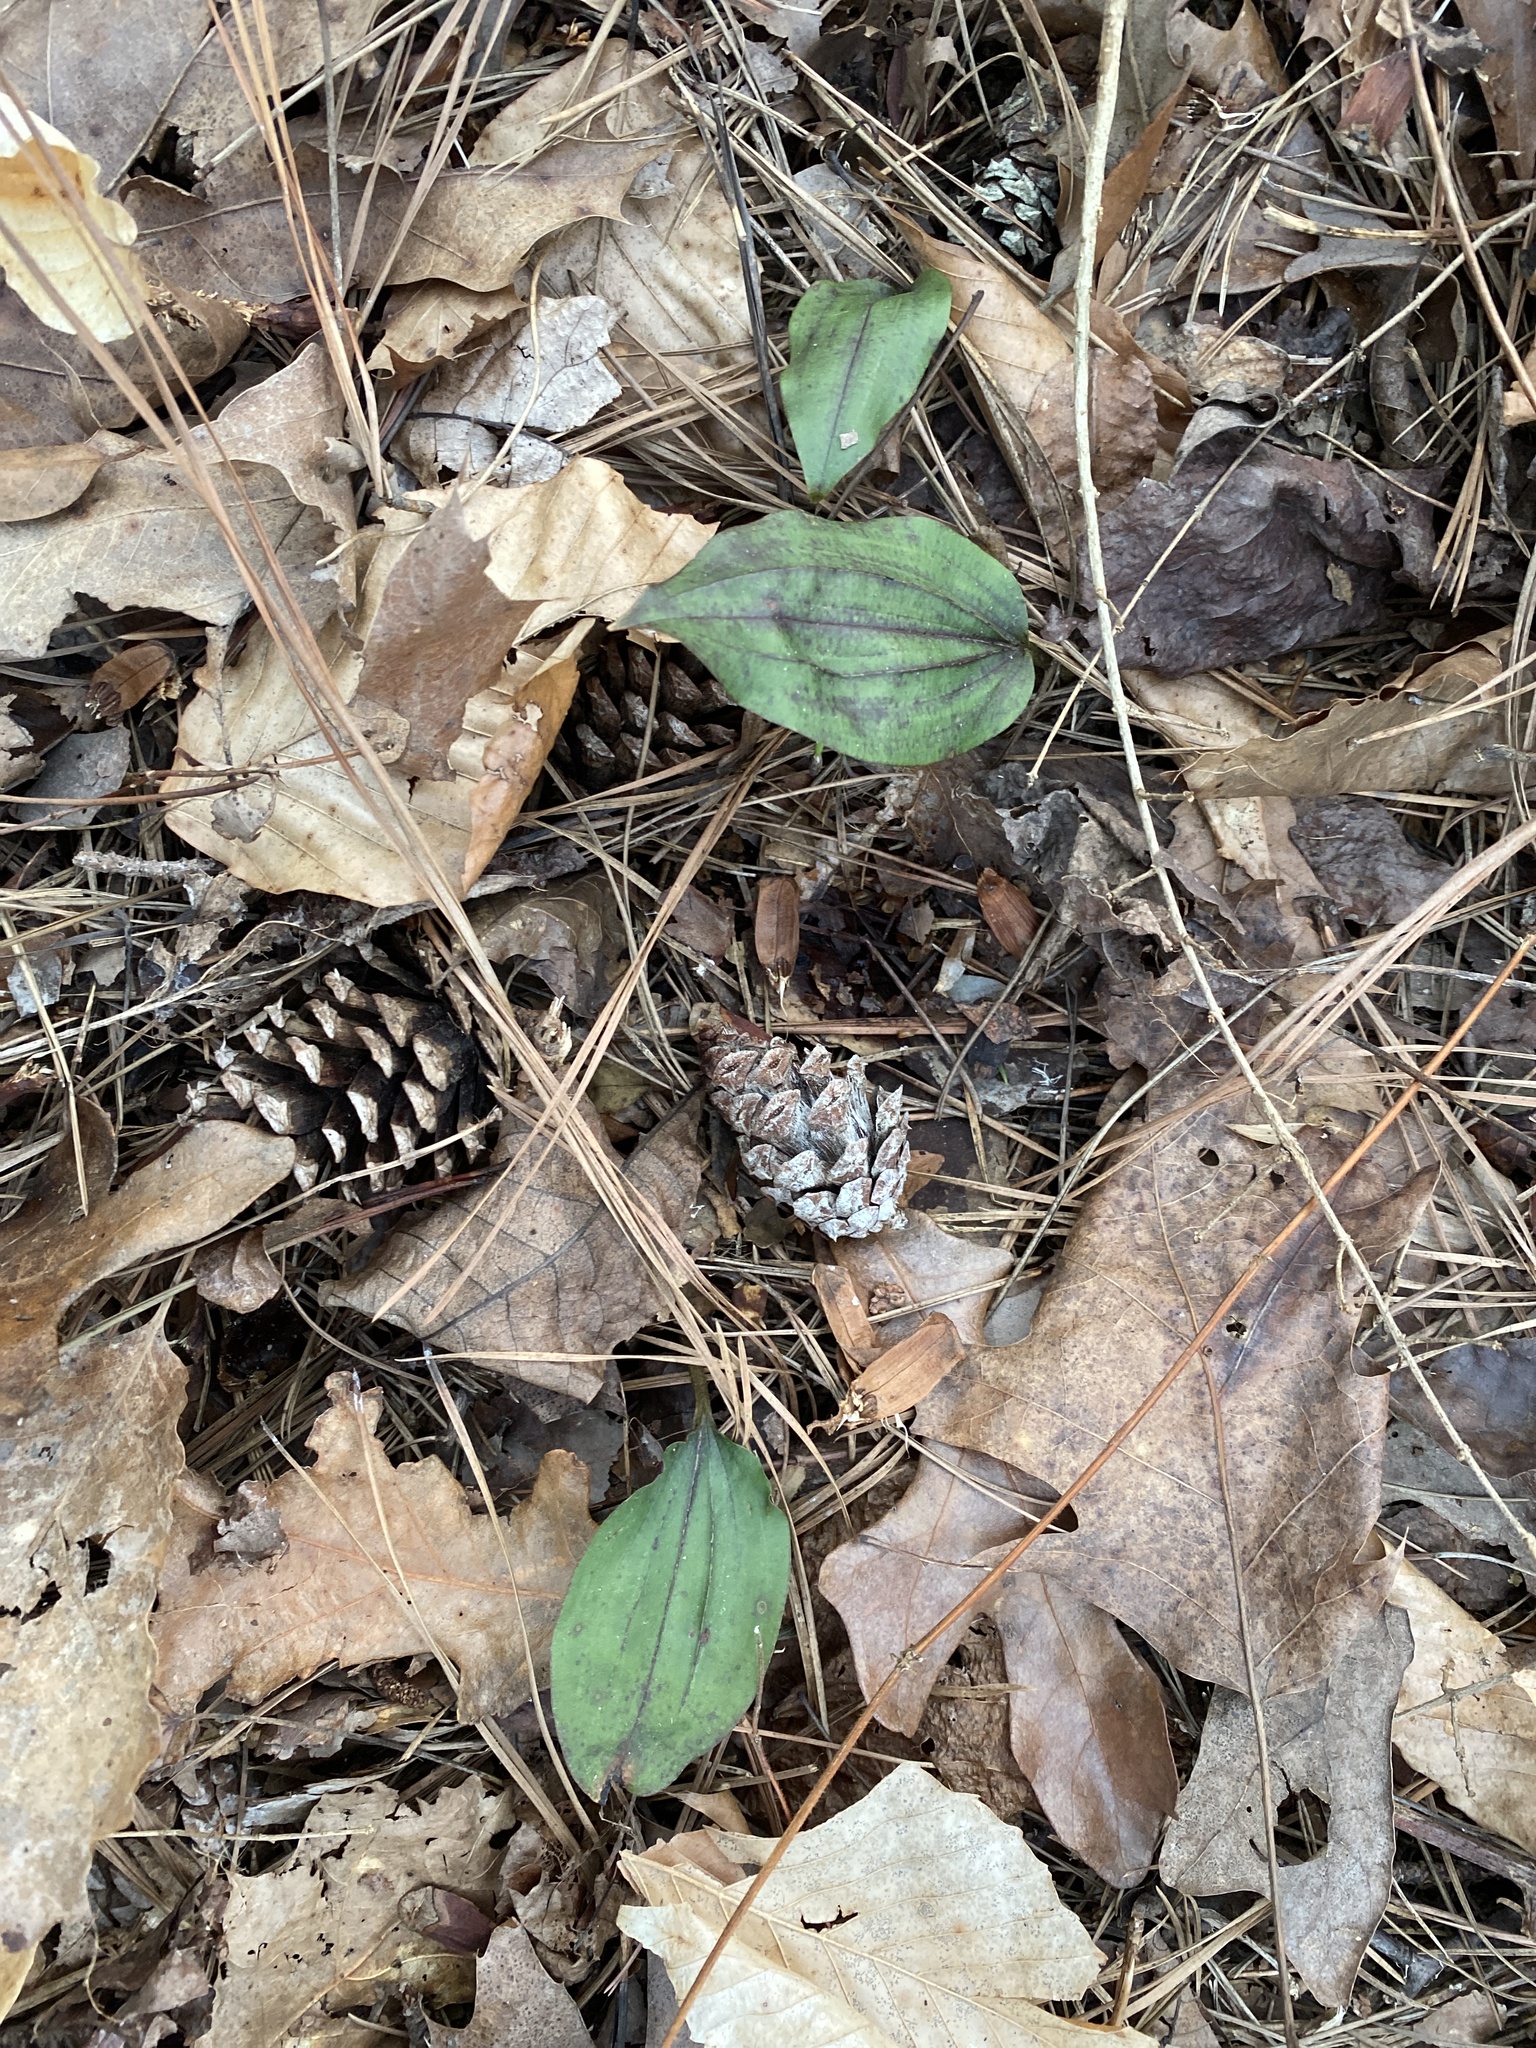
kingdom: Plantae
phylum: Tracheophyta
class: Liliopsida
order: Asparagales
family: Orchidaceae
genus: Tipularia
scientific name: Tipularia discolor
